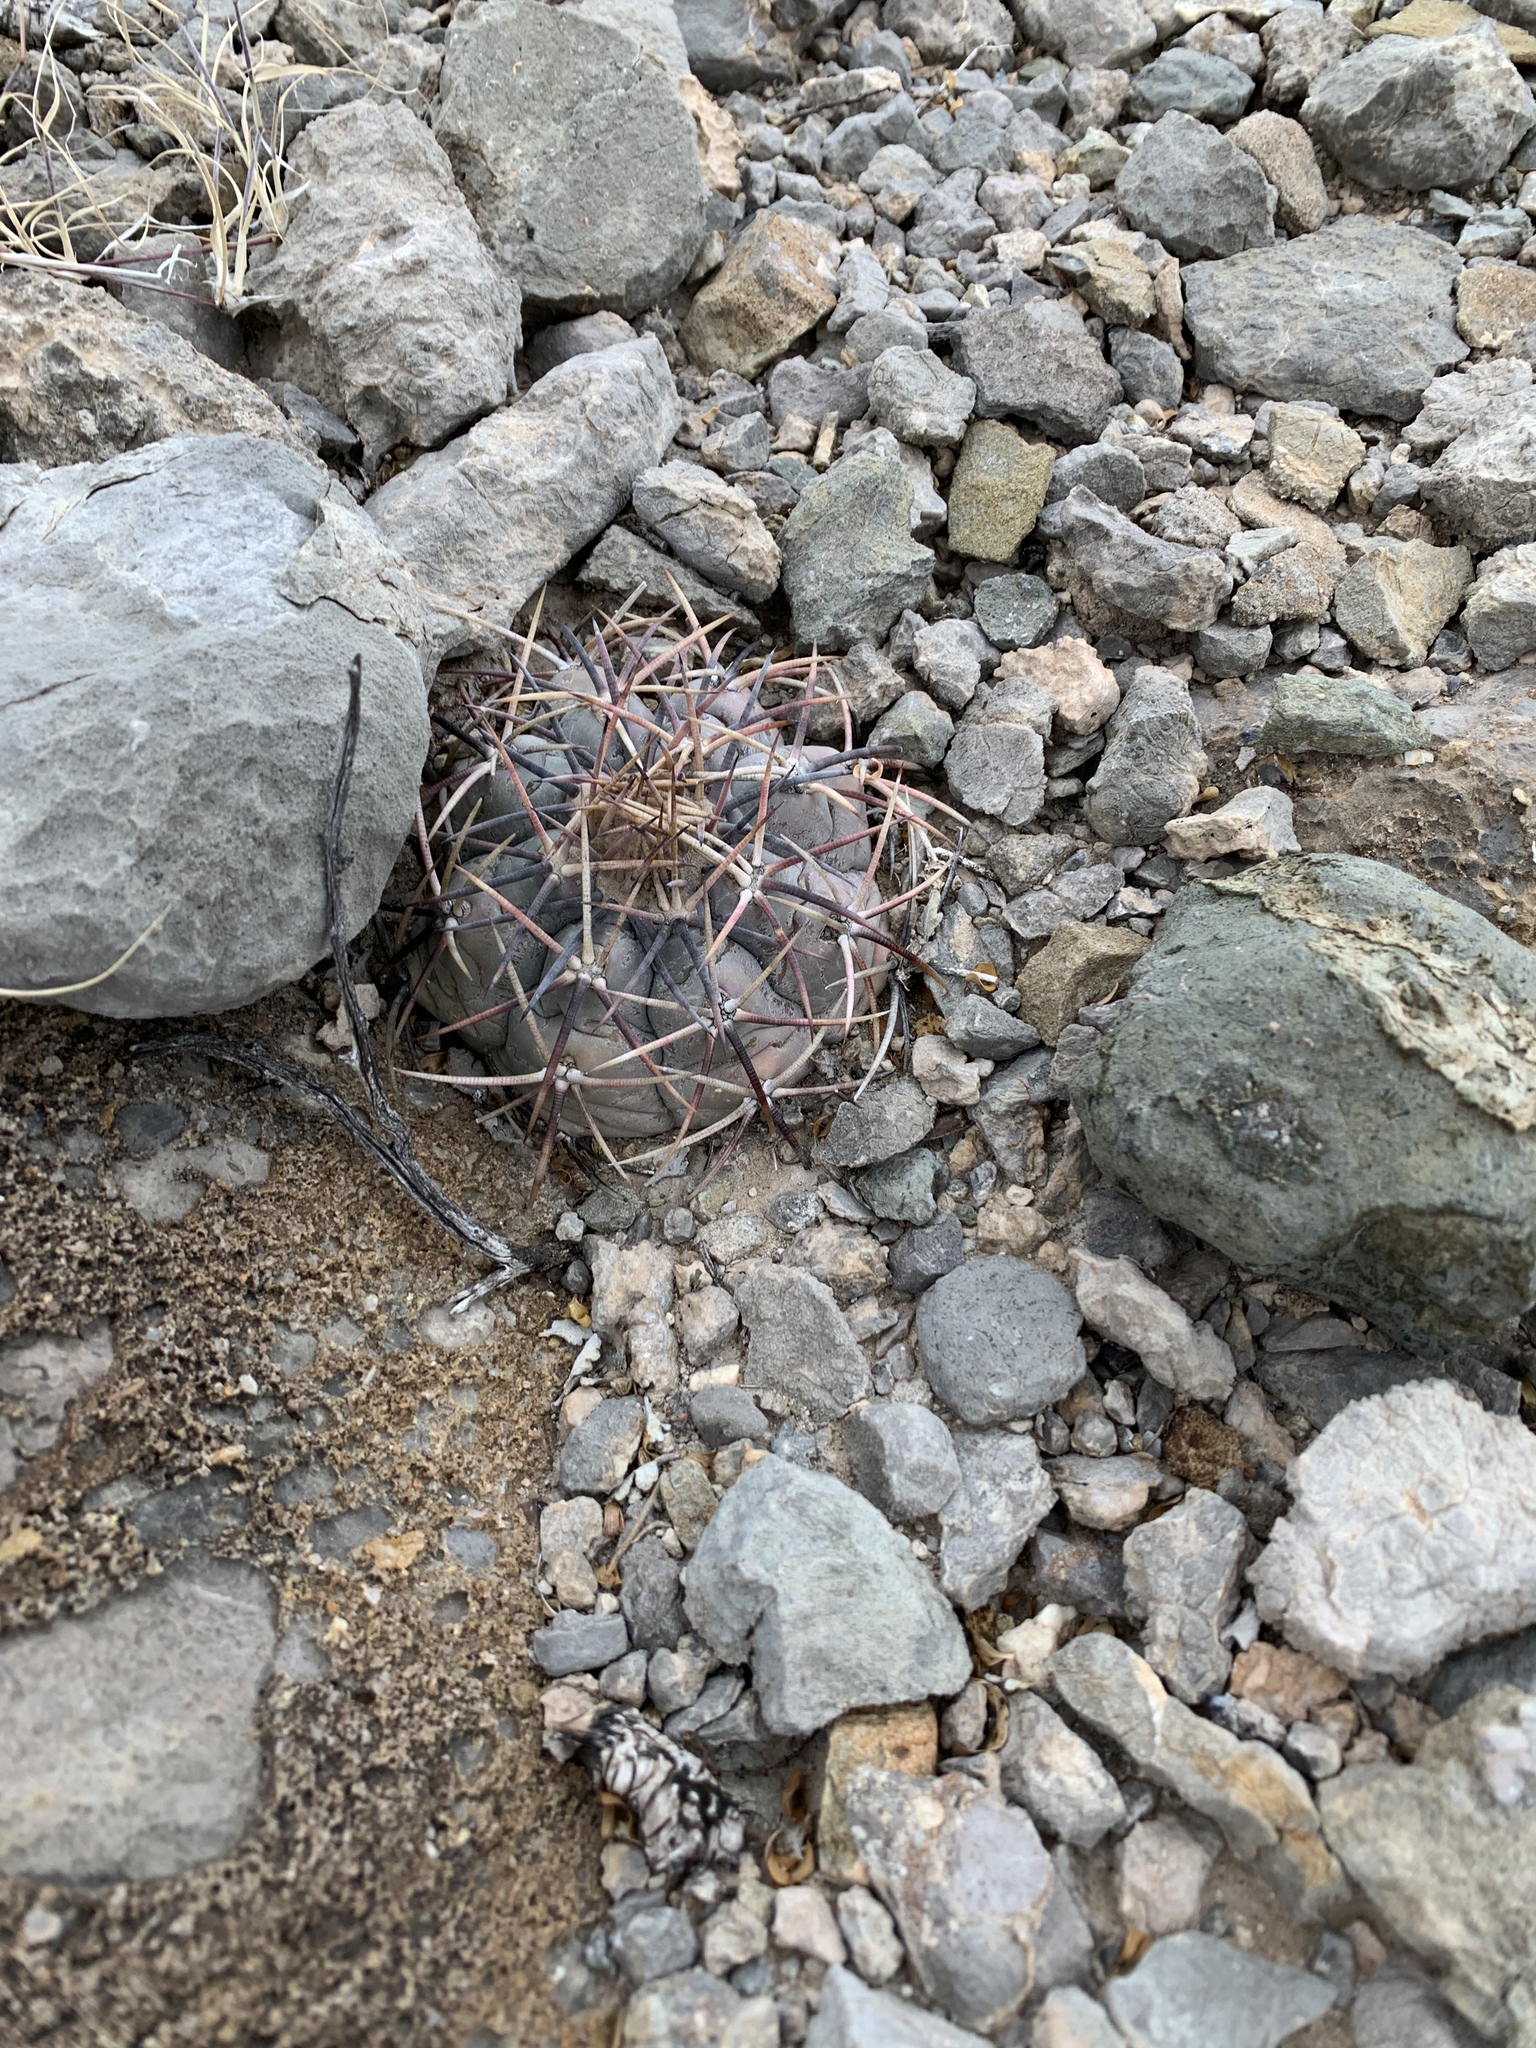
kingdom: Plantae
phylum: Tracheophyta
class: Magnoliopsida
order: Caryophyllales
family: Cactaceae
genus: Echinocactus
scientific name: Echinocactus horizonthalonius
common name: Devilshead
